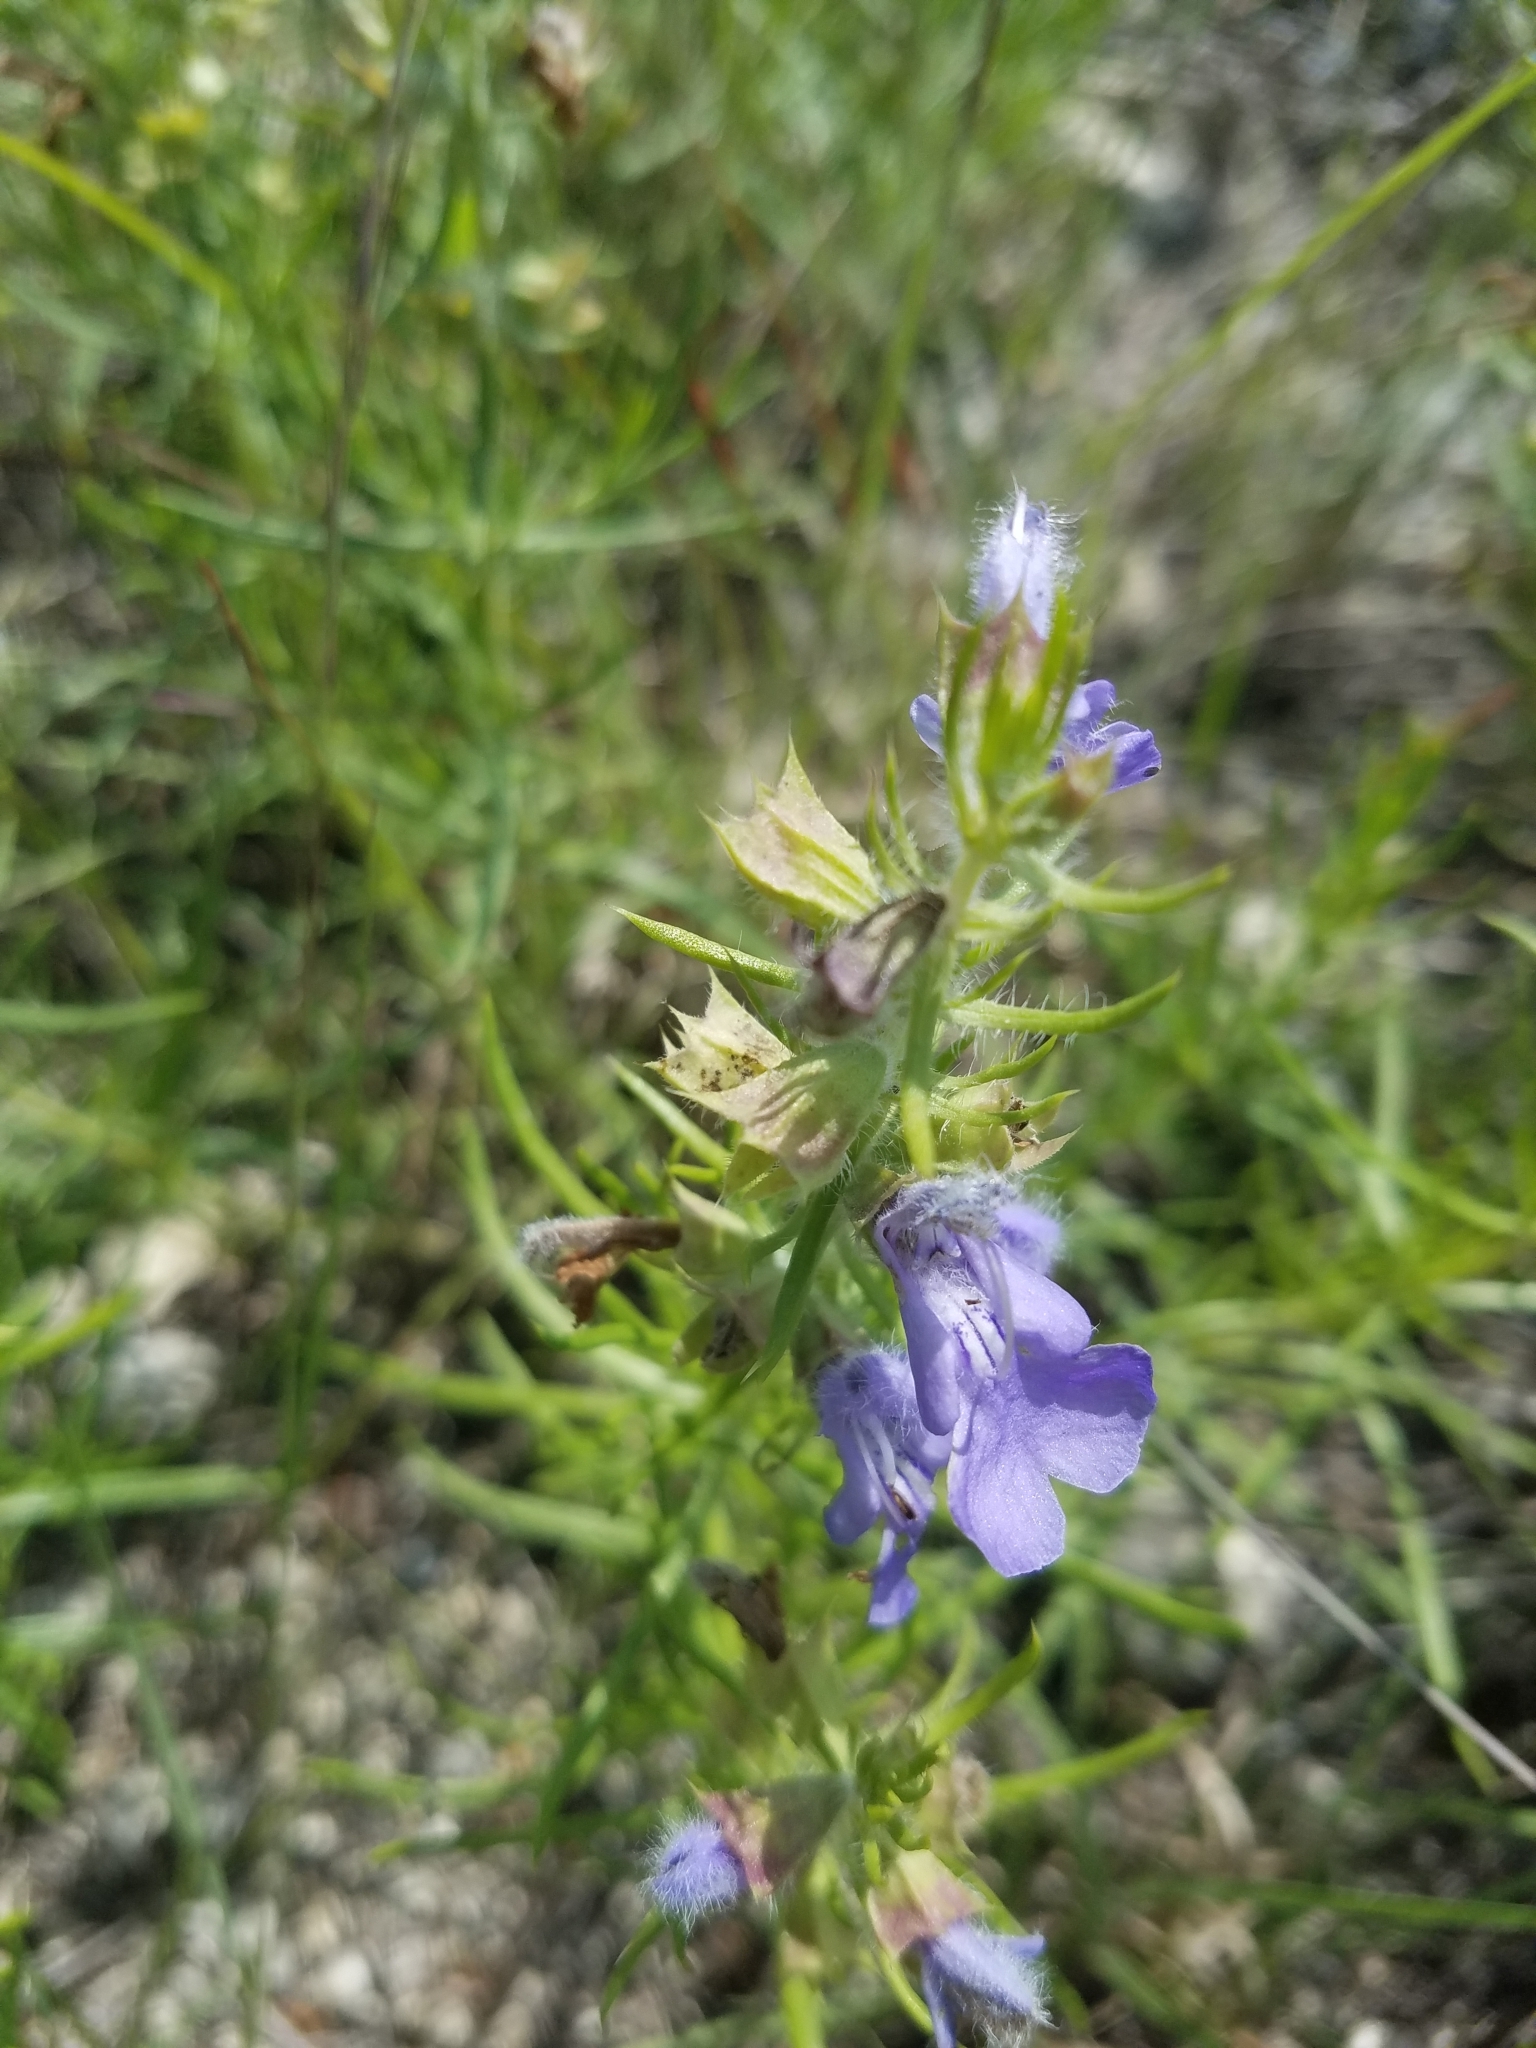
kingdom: Plantae
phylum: Tracheophyta
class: Magnoliopsida
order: Lamiales
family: Lamiaceae
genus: Salvia
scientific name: Salvia engelmannii
